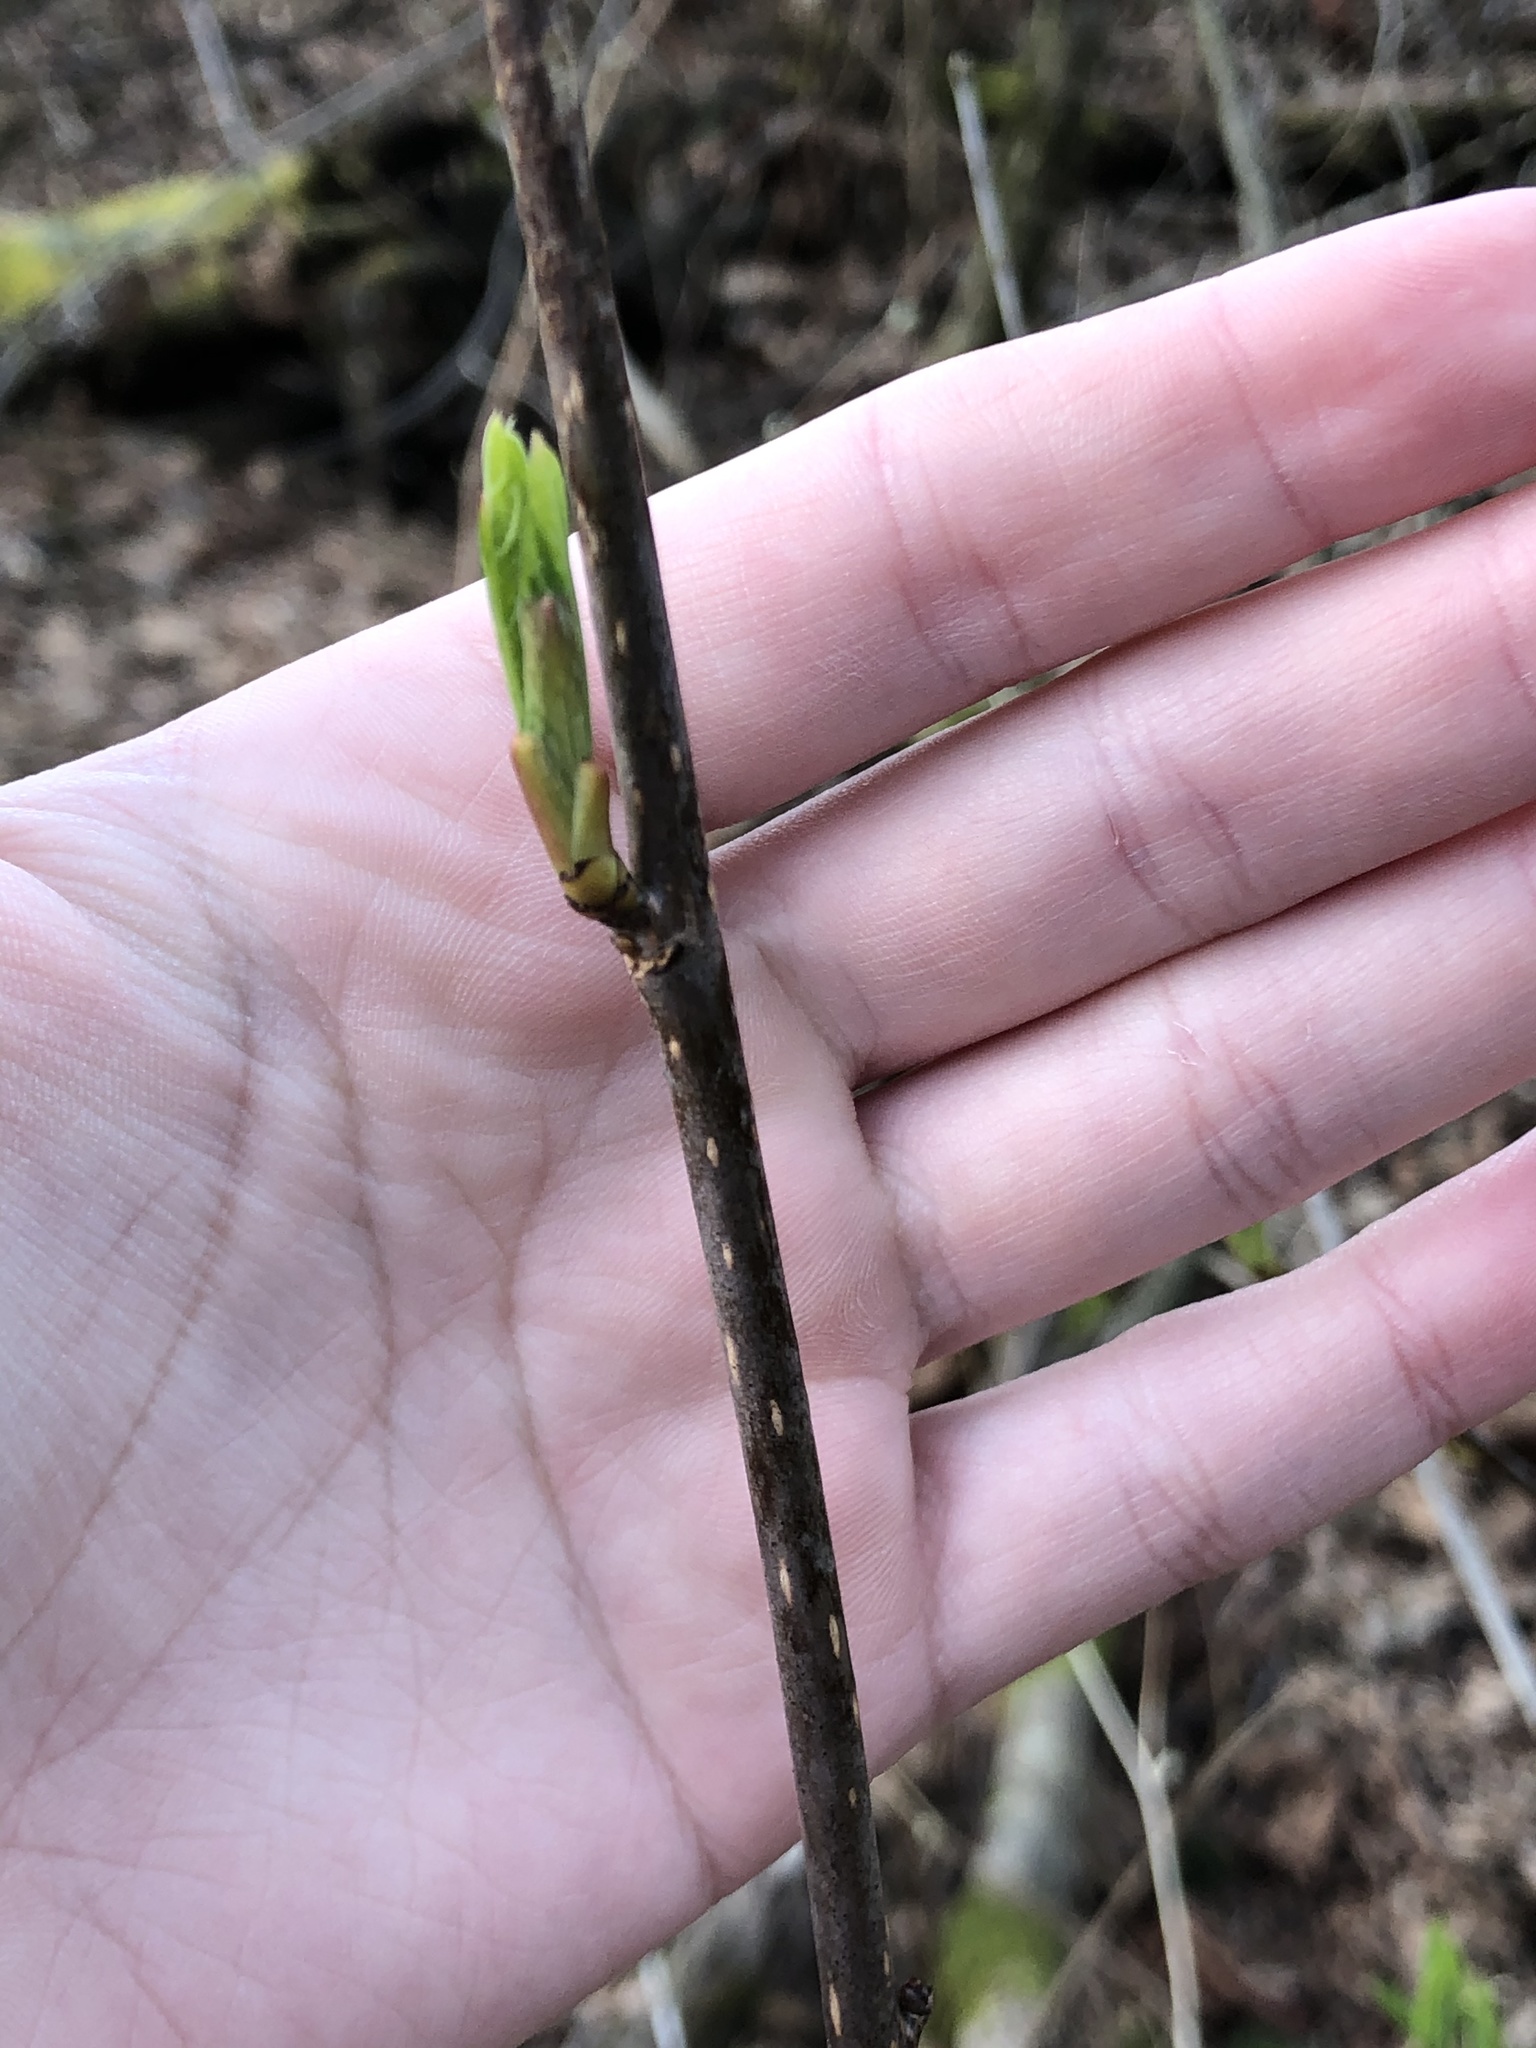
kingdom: Plantae
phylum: Tracheophyta
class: Magnoliopsida
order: Rosales
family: Rosaceae
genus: Oemleria
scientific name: Oemleria cerasiformis
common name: Osoberry
